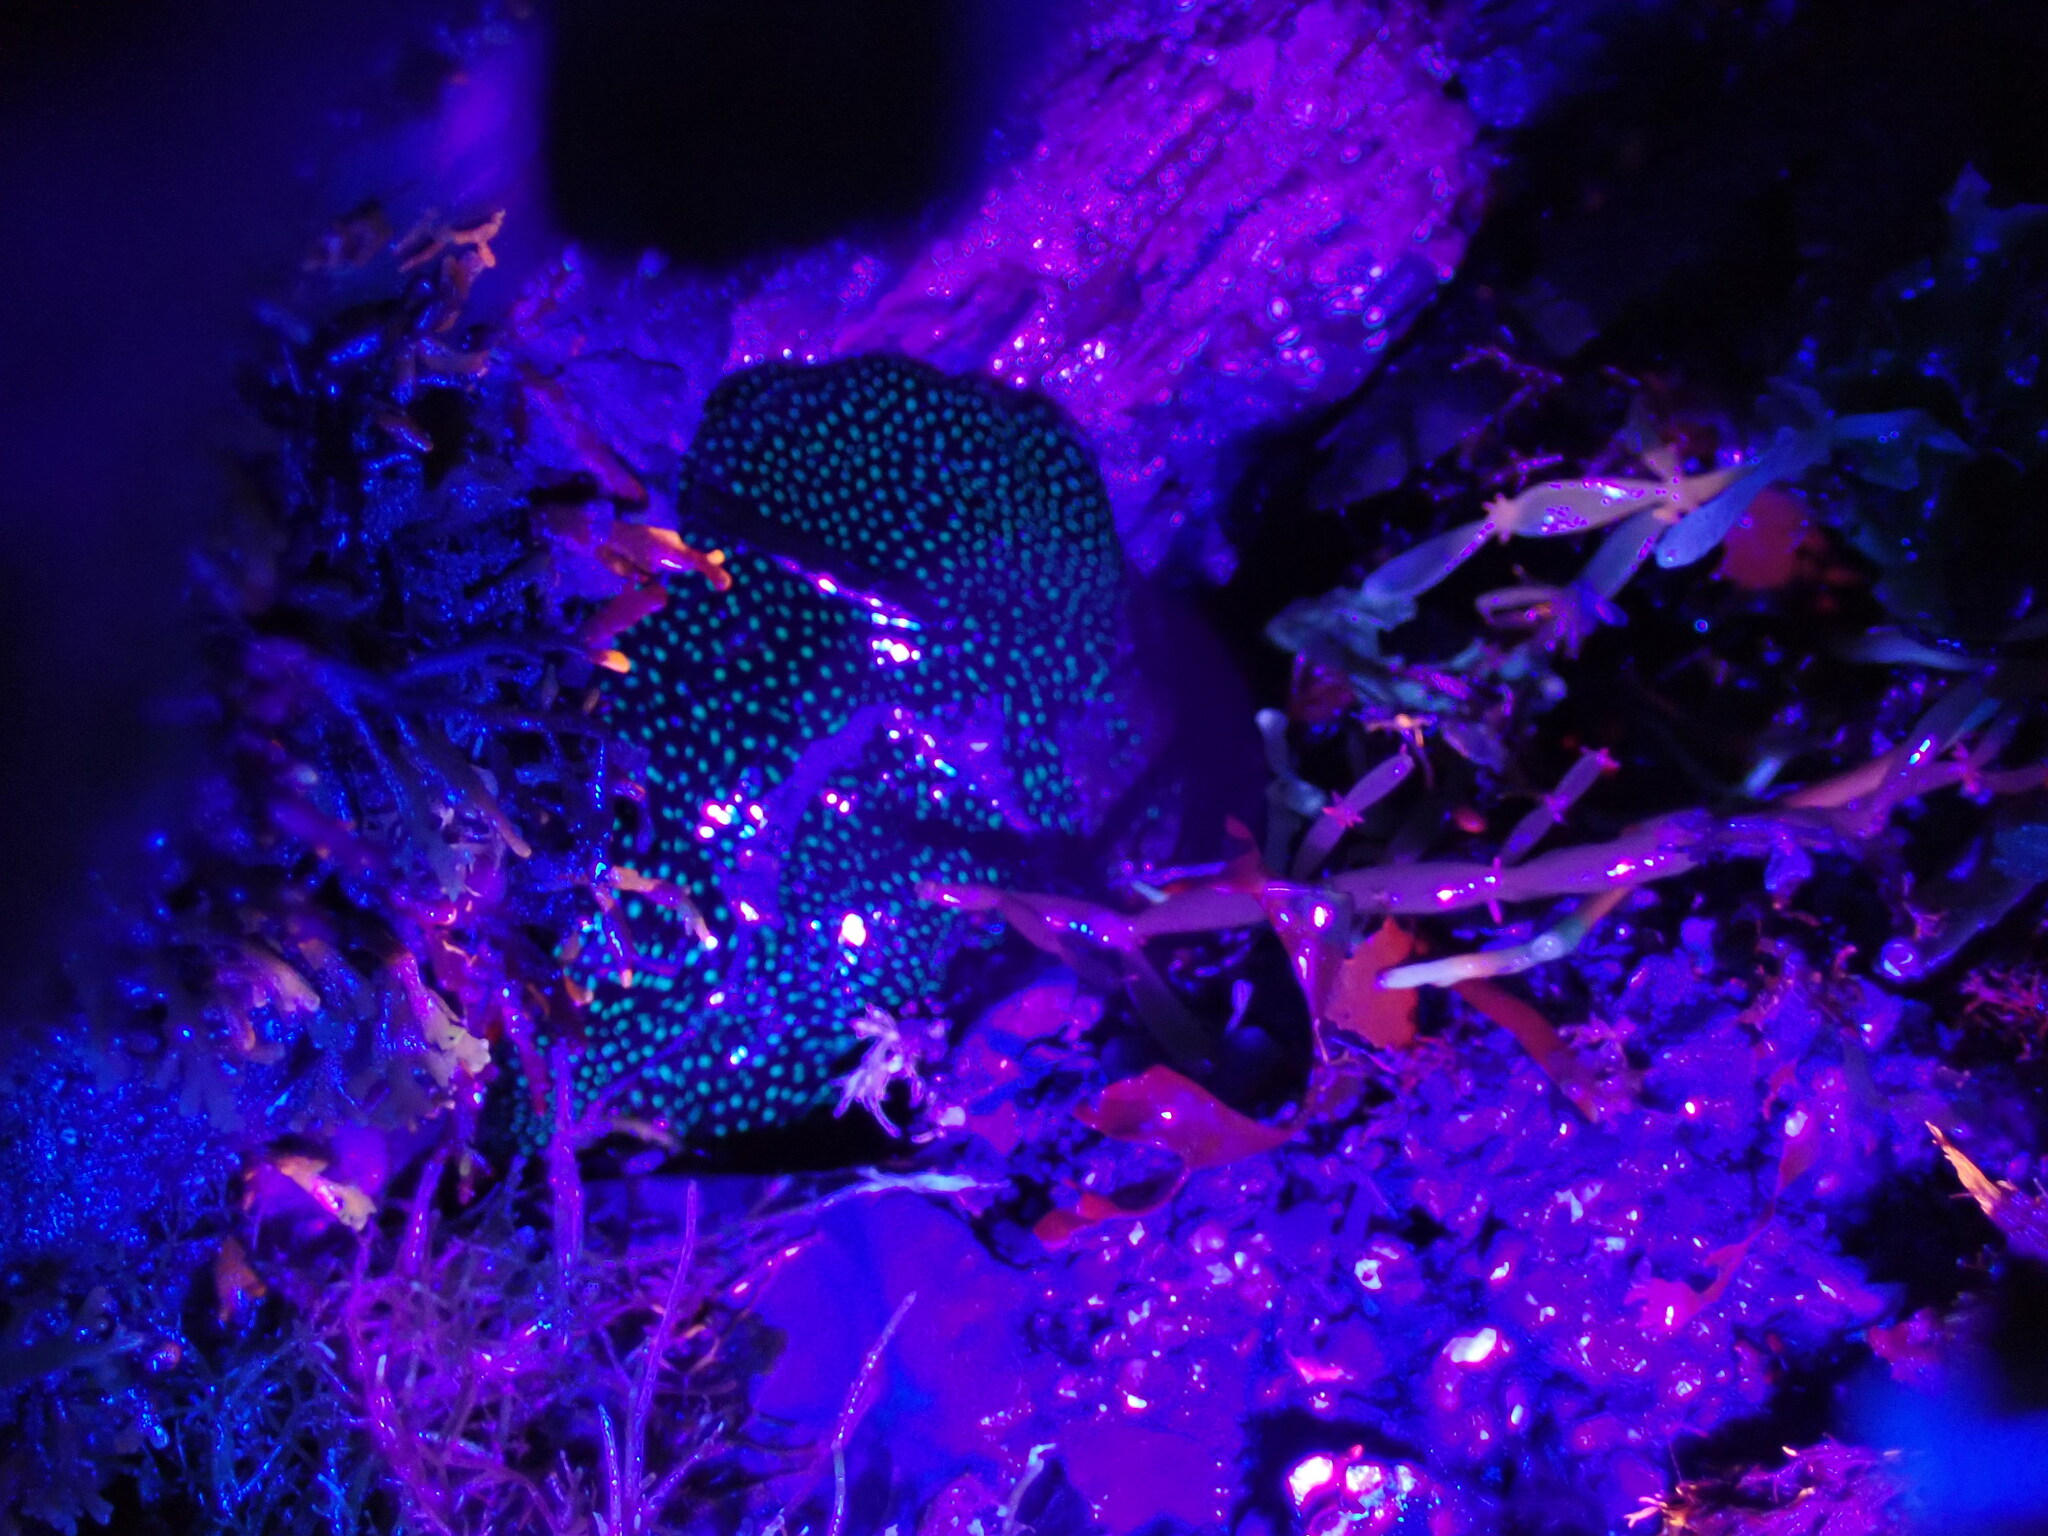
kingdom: Animalia
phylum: Cnidaria
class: Anthozoa
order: Actiniaria
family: Actiniidae
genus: Actinia
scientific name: Actinia fragacea
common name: Strawberry anemone
